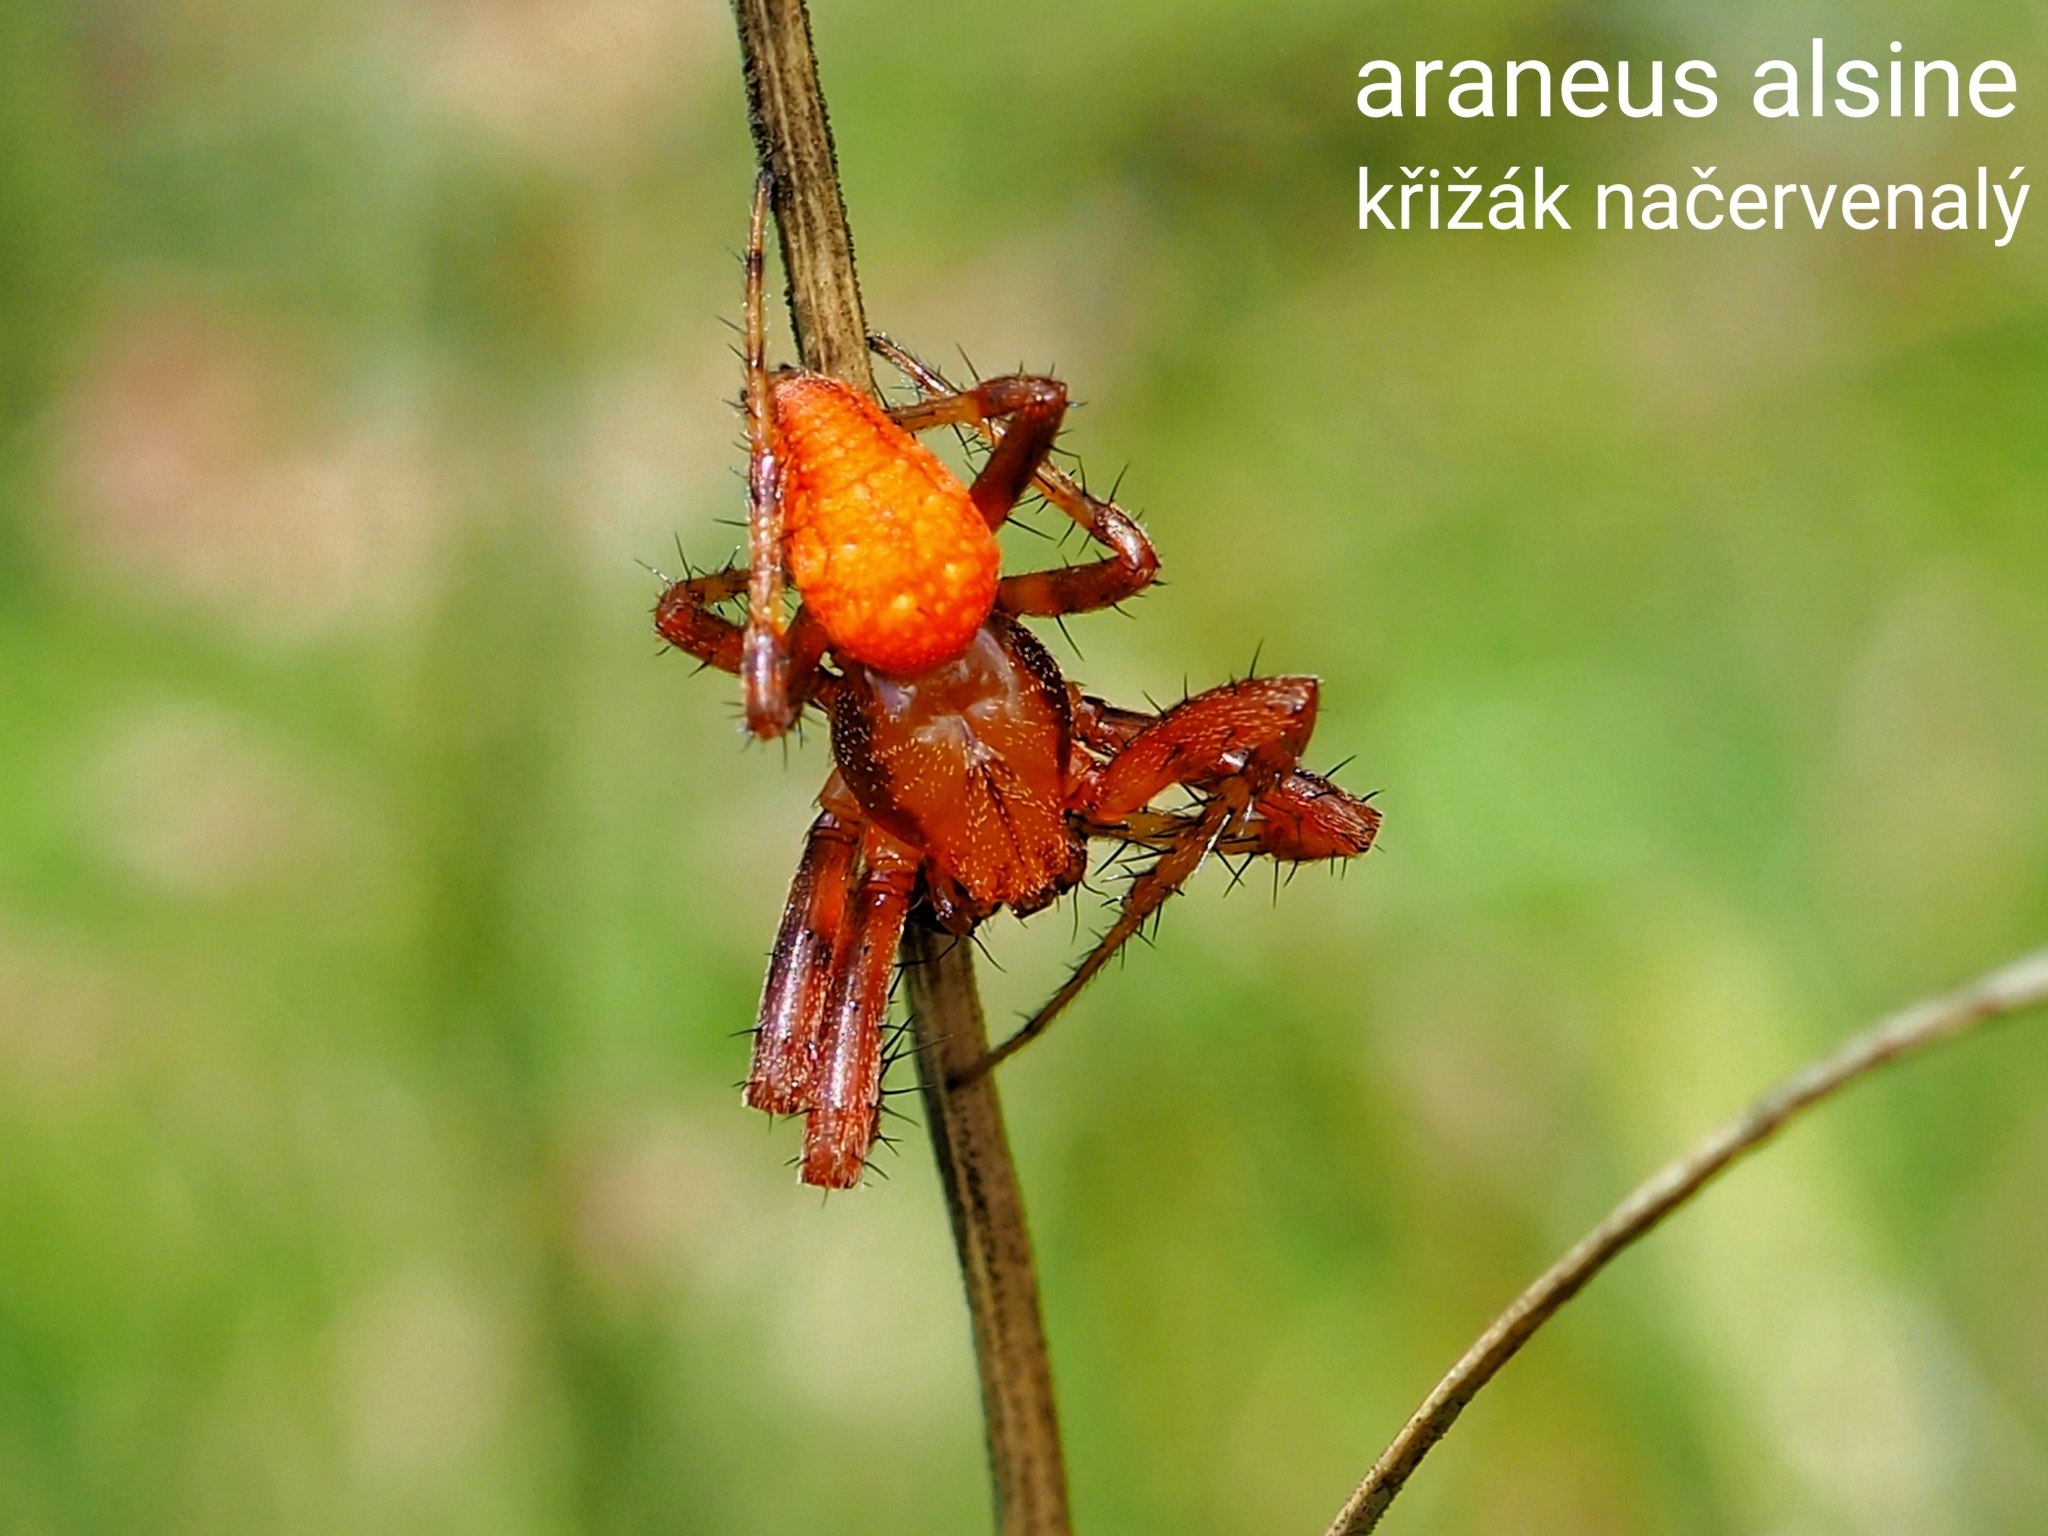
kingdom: Animalia
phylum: Arthropoda
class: Arachnida
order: Araneae
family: Araneidae
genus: Araneus
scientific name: Araneus alsine
